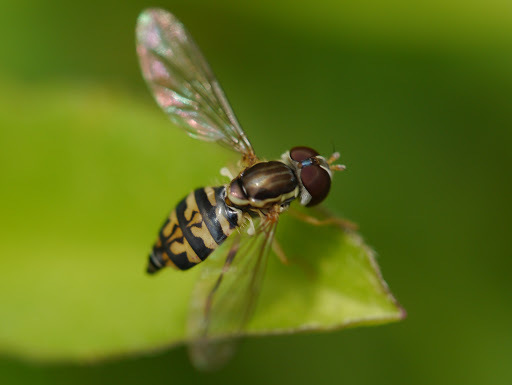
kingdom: Animalia
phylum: Arthropoda
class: Insecta
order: Diptera
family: Syrphidae
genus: Toxomerus
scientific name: Toxomerus geminatus
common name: Eastern calligrapher
